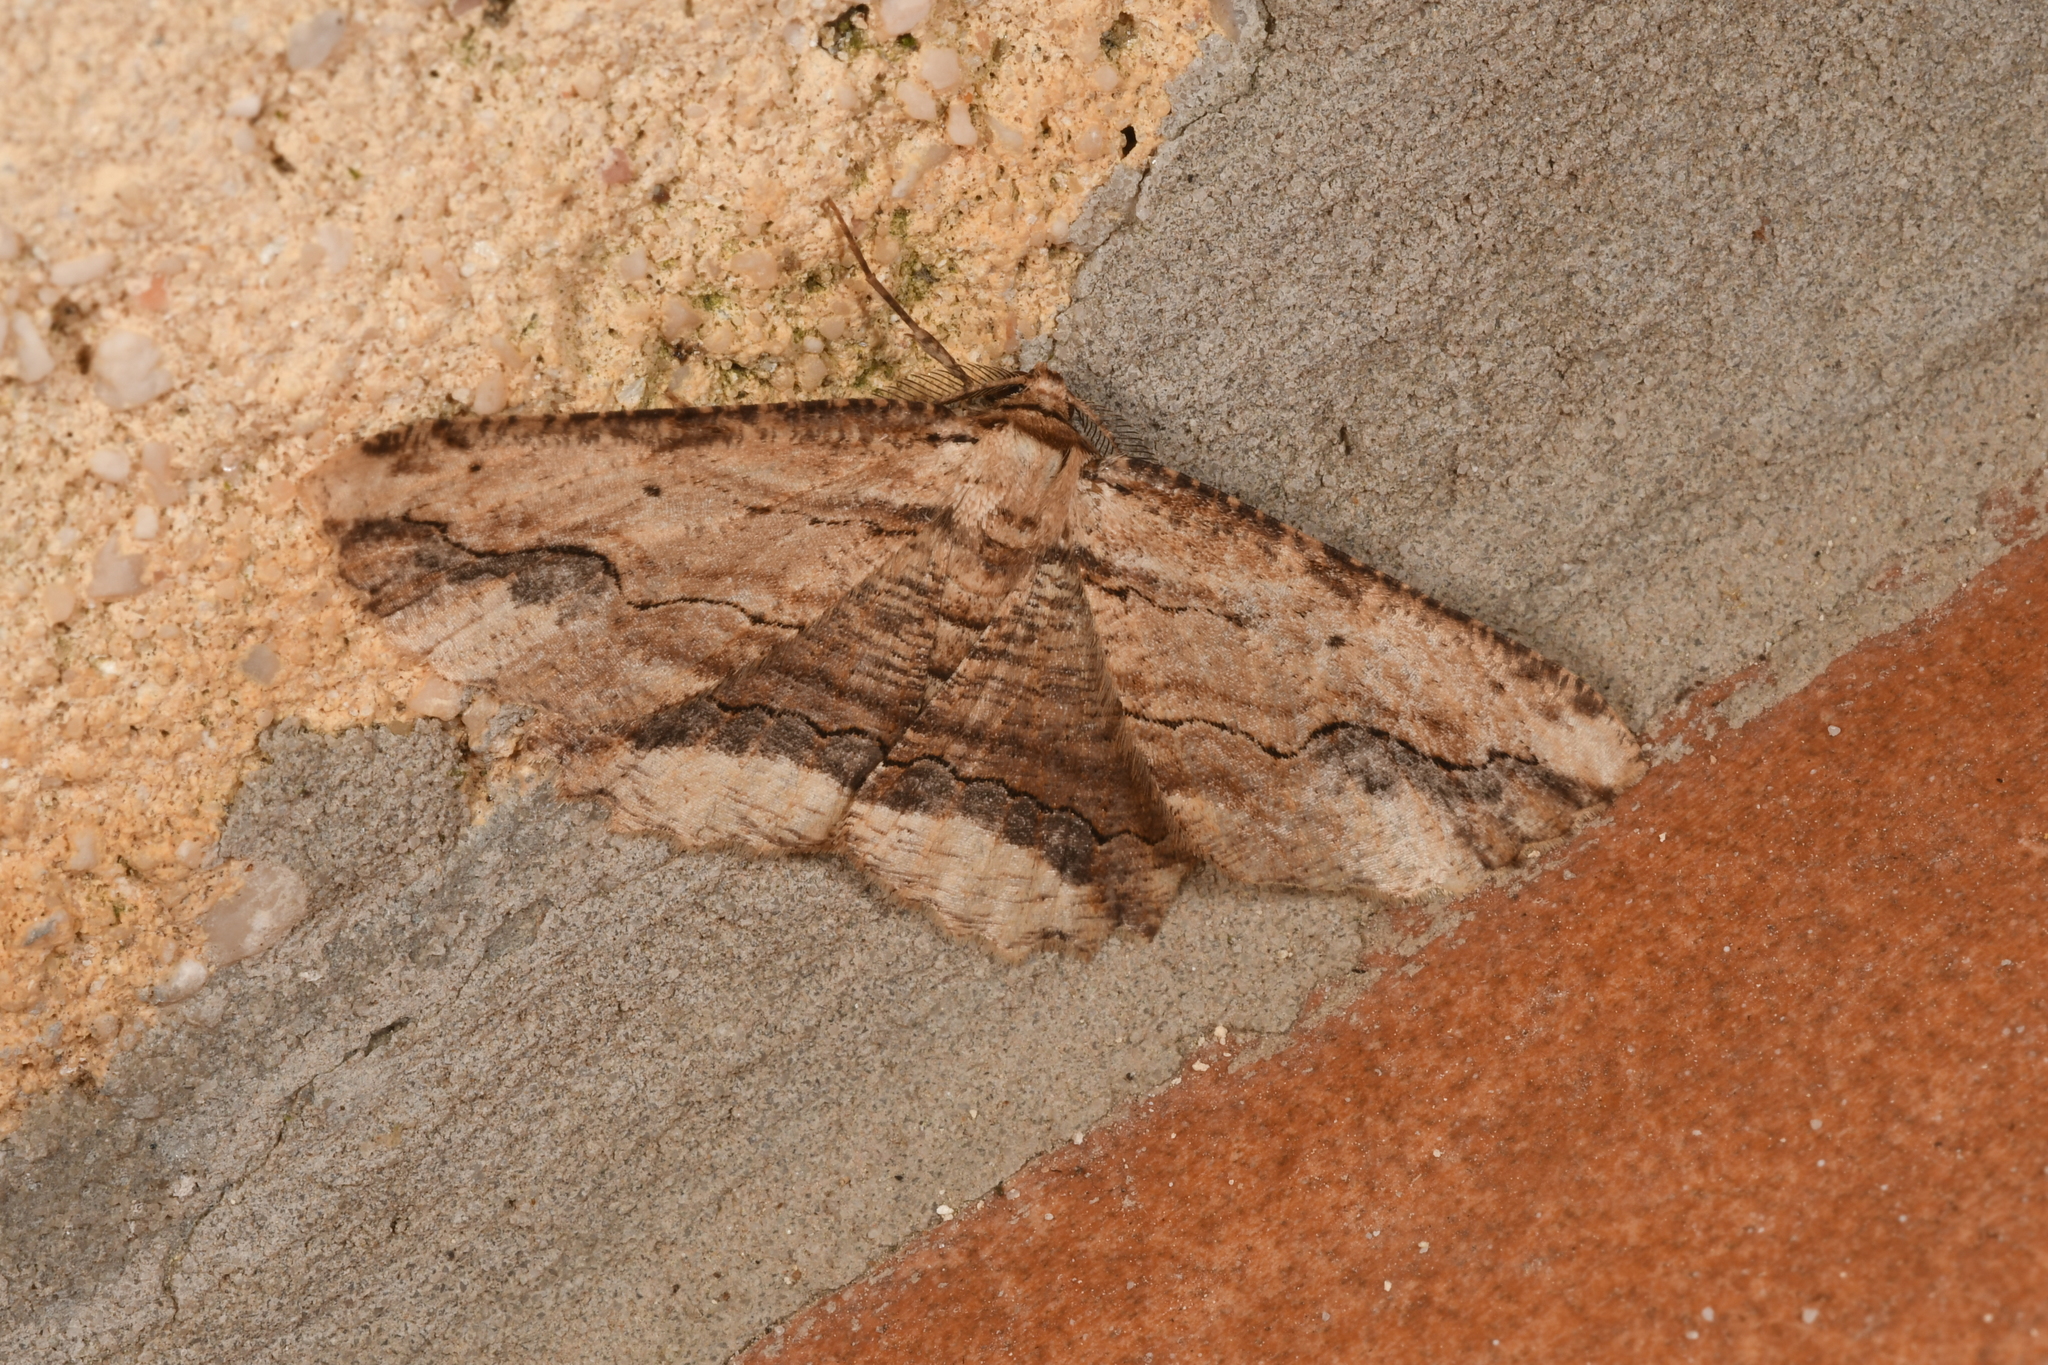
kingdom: Animalia
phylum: Arthropoda
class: Insecta
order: Lepidoptera
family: Geometridae
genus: Menophra
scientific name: Menophra abruptaria
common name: Waved umber
